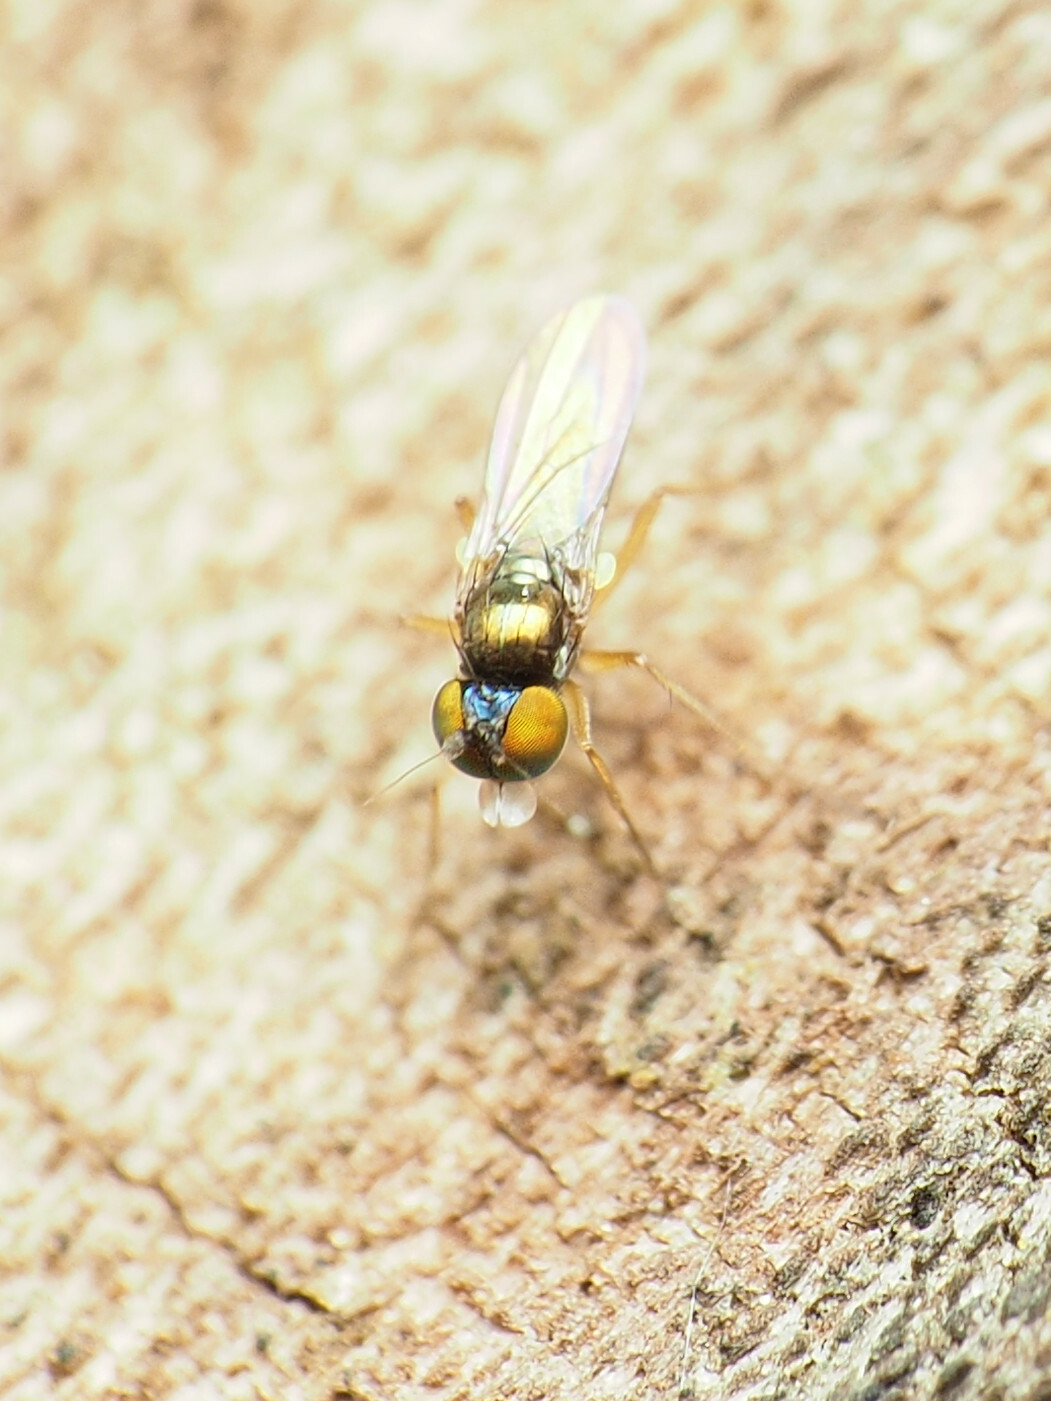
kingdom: Animalia
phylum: Arthropoda
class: Insecta
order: Diptera
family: Dolichopodidae
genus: Chrysotus
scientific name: Chrysotus crosbyi
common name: Longlegged fly
